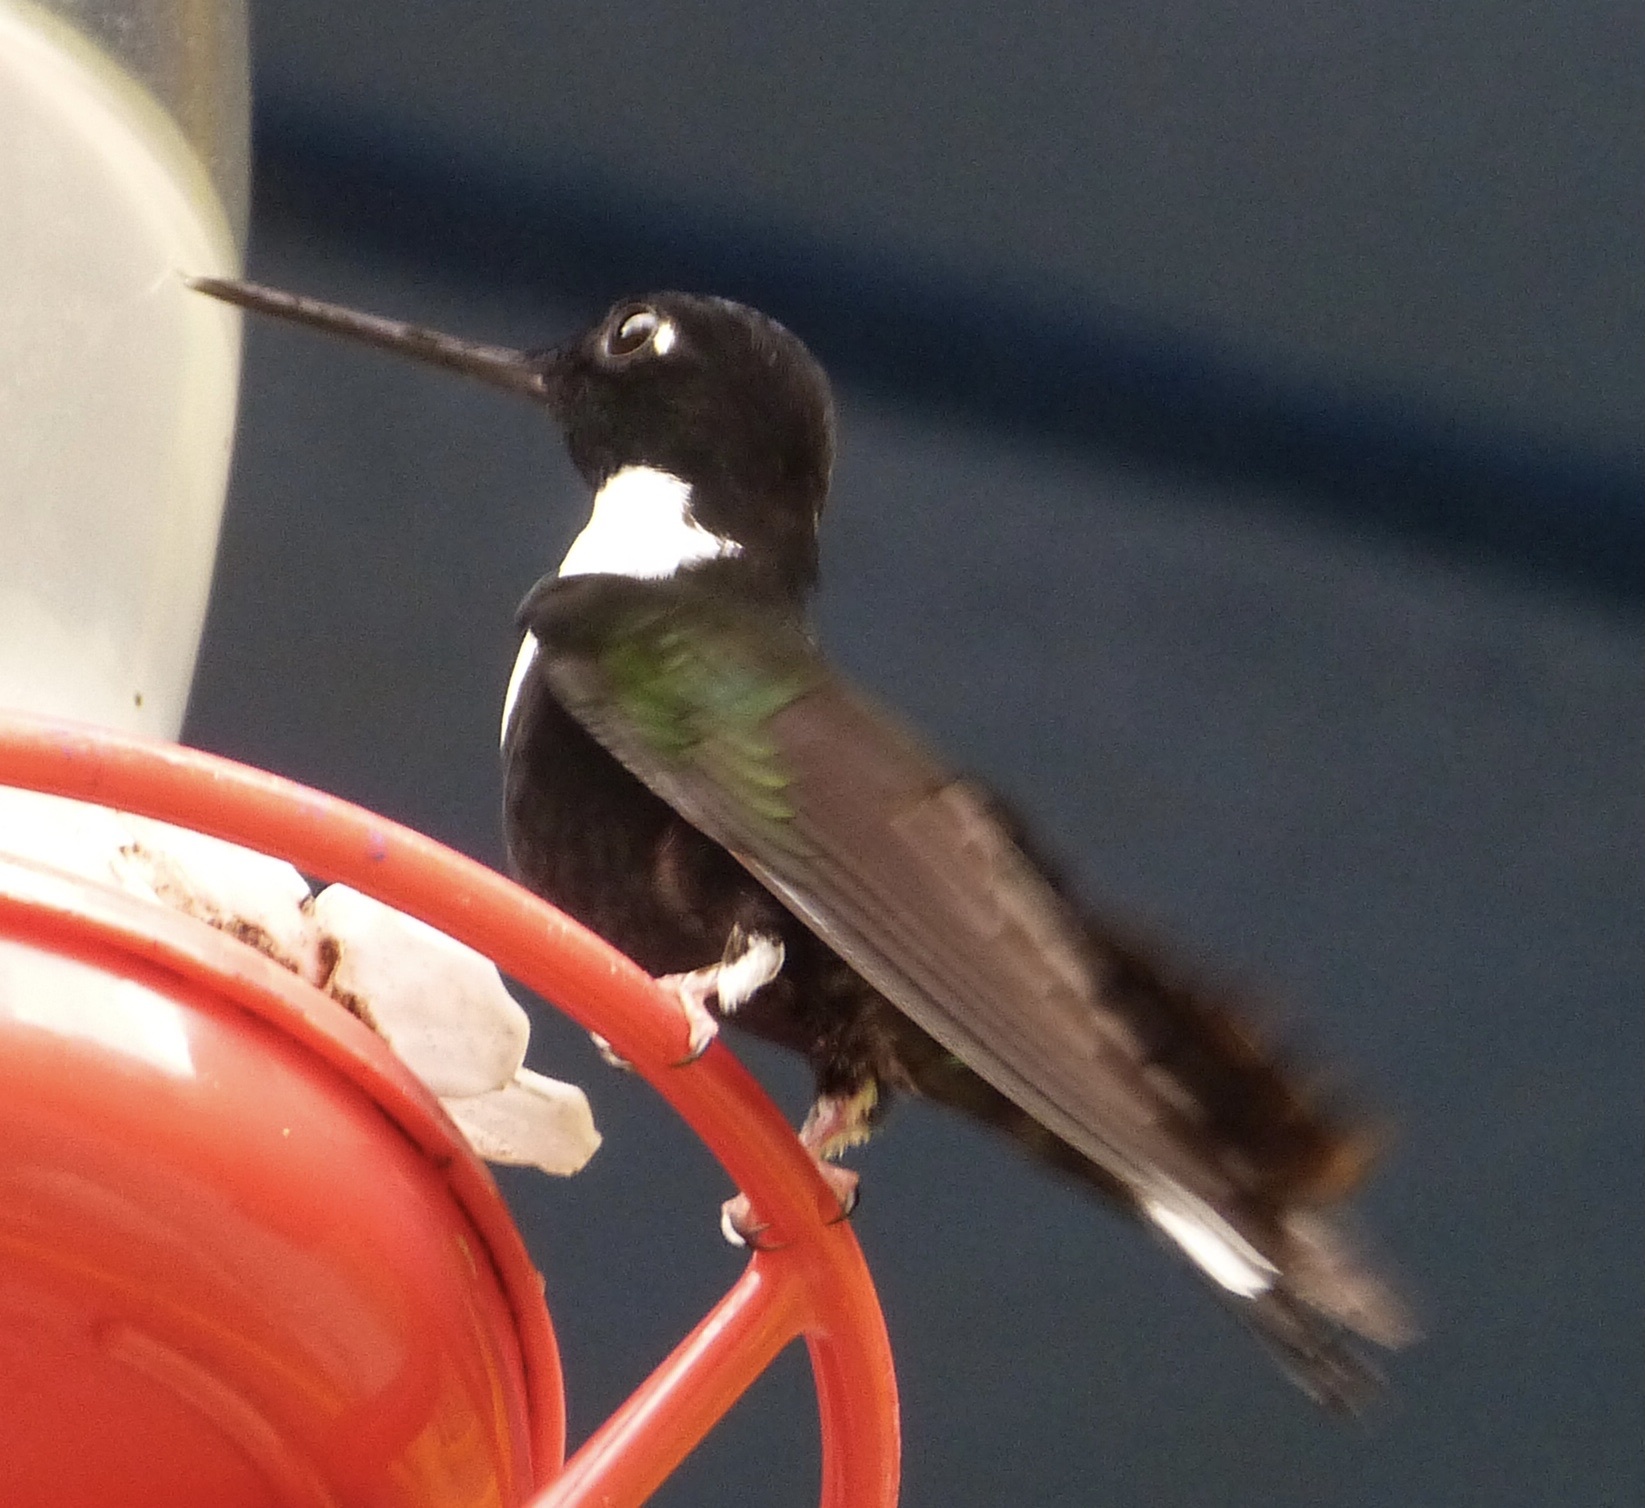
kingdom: Animalia
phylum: Chordata
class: Aves
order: Apodiformes
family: Trochilidae
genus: Coeligena
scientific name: Coeligena torquata
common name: Collared inca
